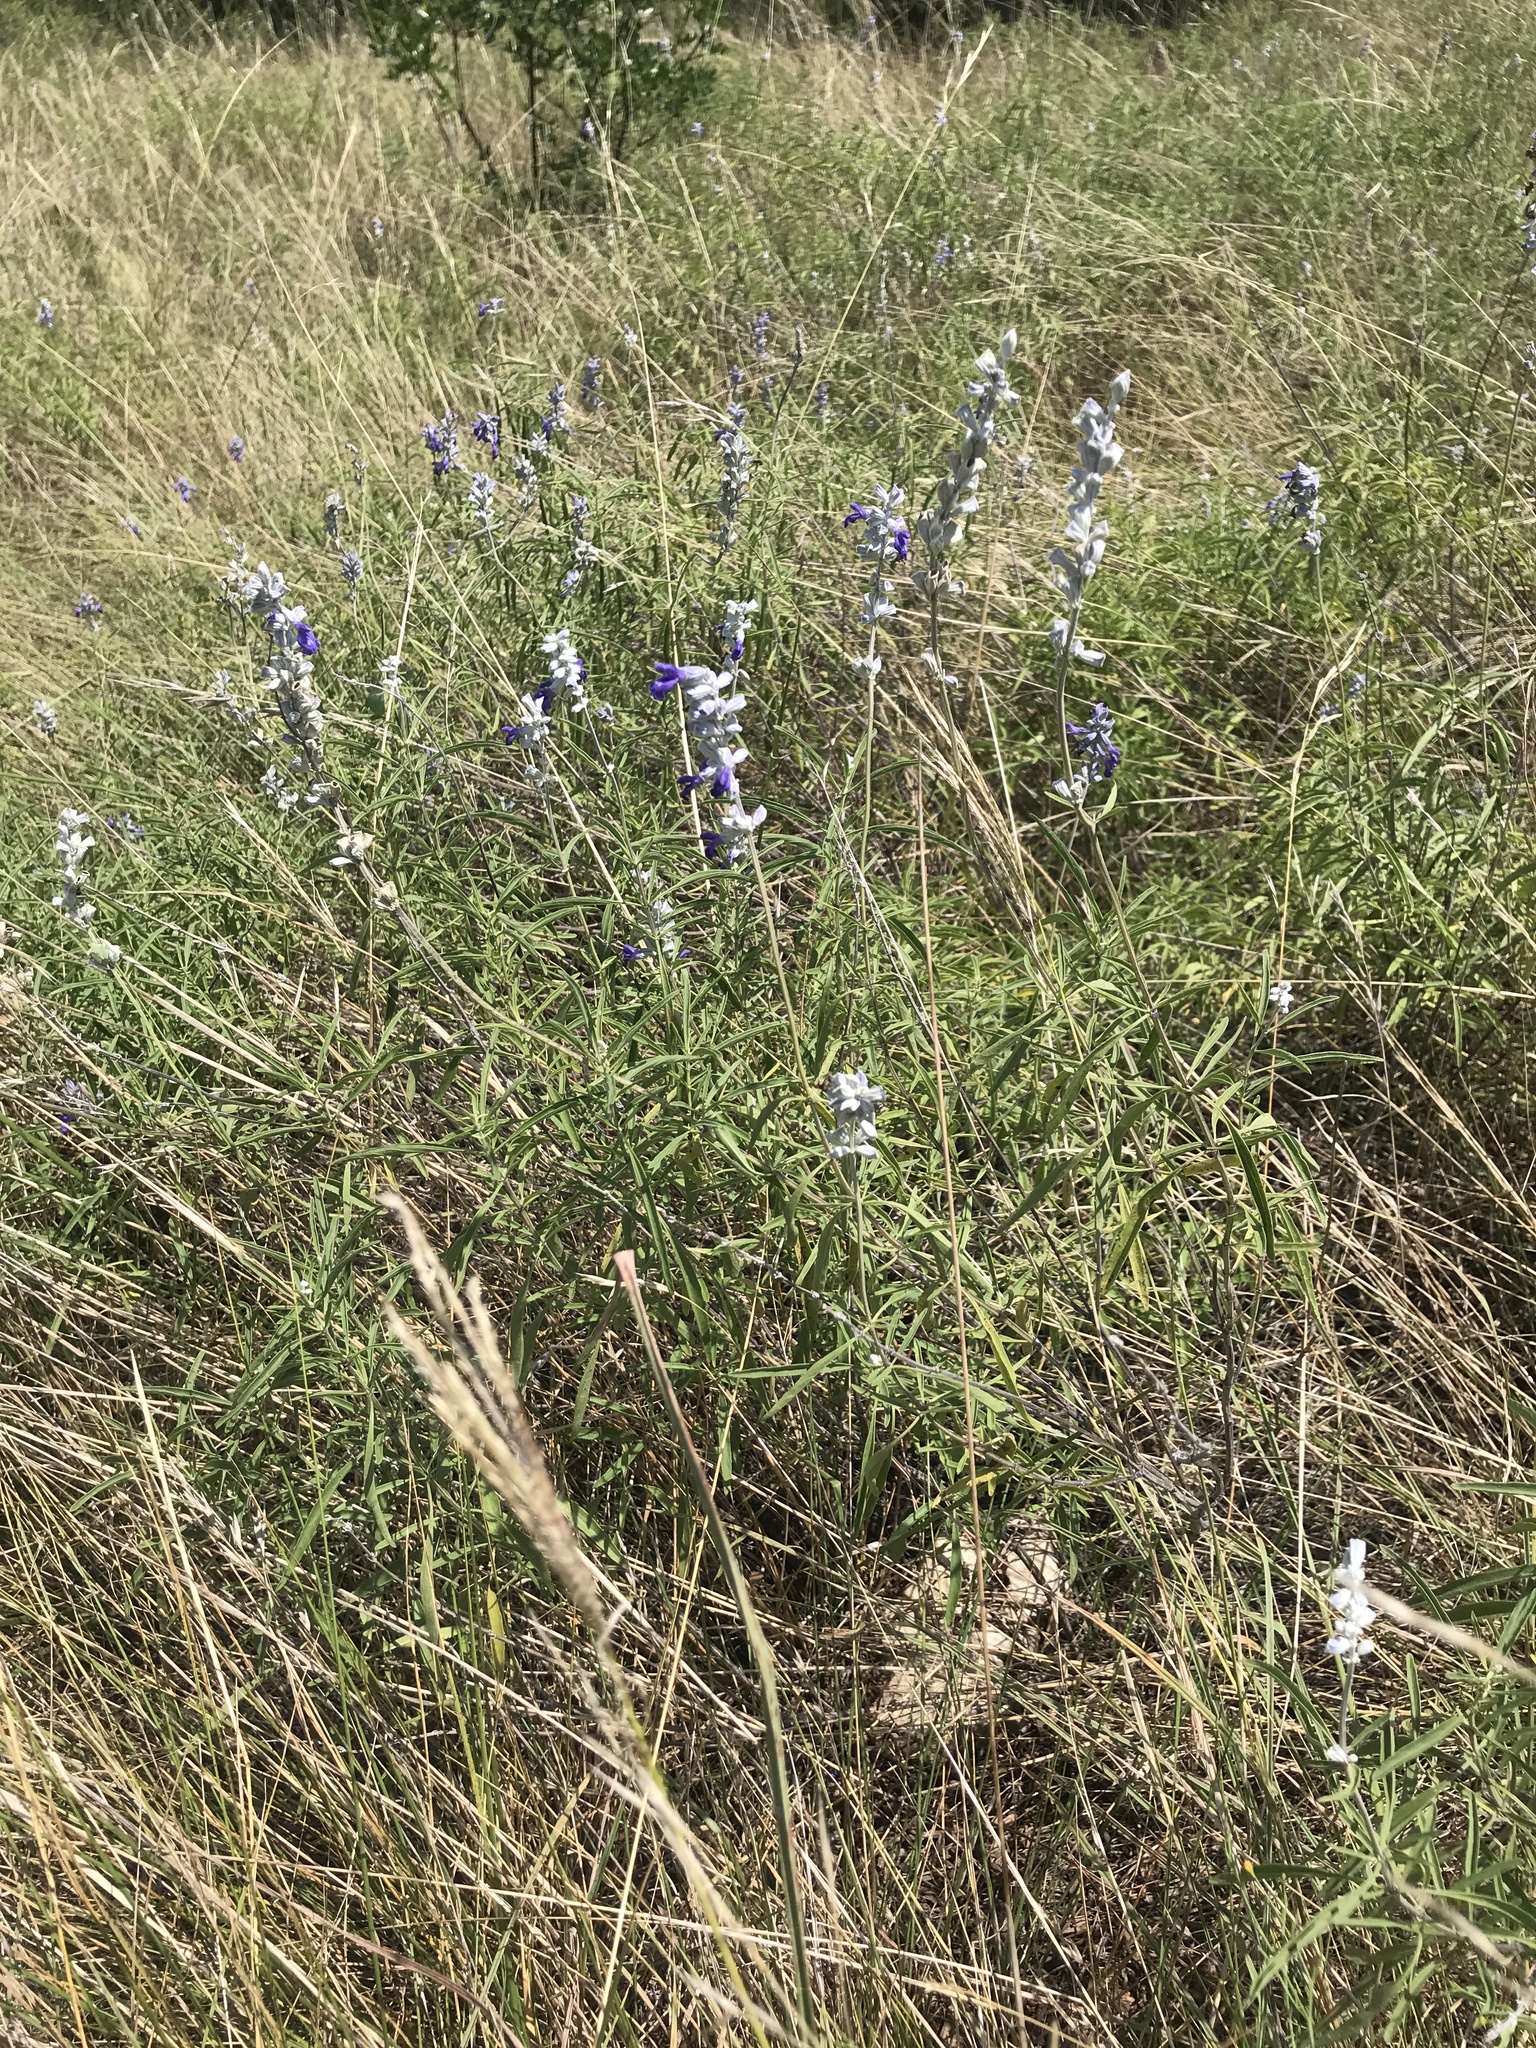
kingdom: Plantae
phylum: Tracheophyta
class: Magnoliopsida
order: Lamiales
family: Lamiaceae
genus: Salvia
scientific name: Salvia farinacea
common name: Mealy sage
